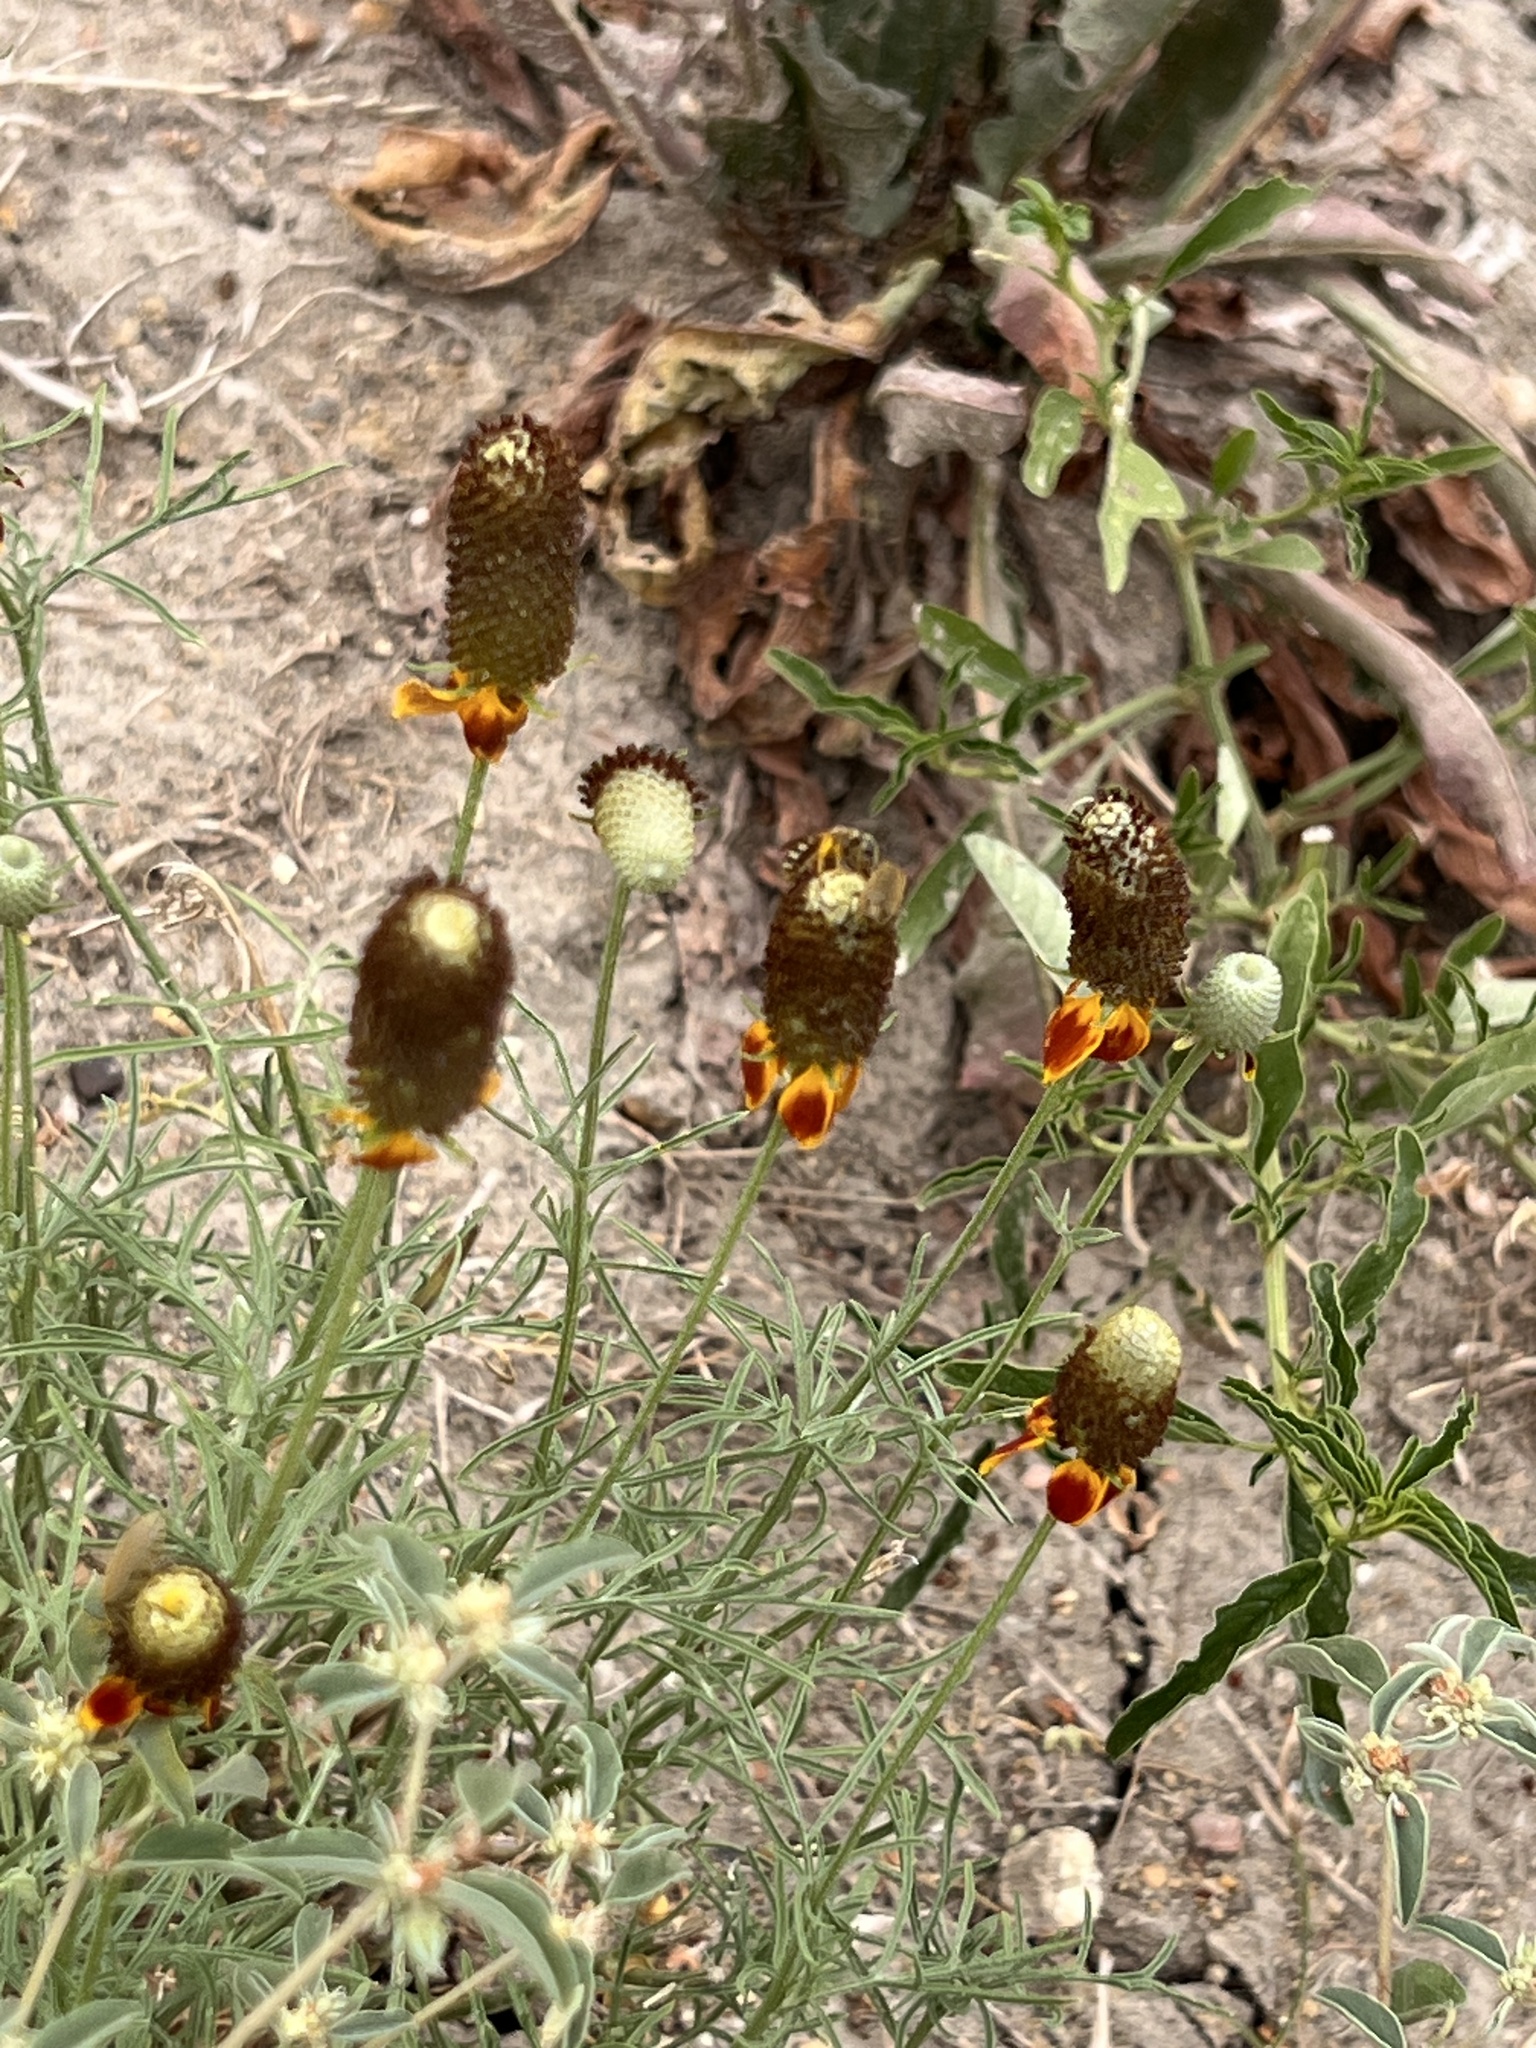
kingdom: Plantae
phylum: Tracheophyta
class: Magnoliopsida
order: Asterales
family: Asteraceae
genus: Ratibida
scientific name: Ratibida columnifera
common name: Prairie coneflower
